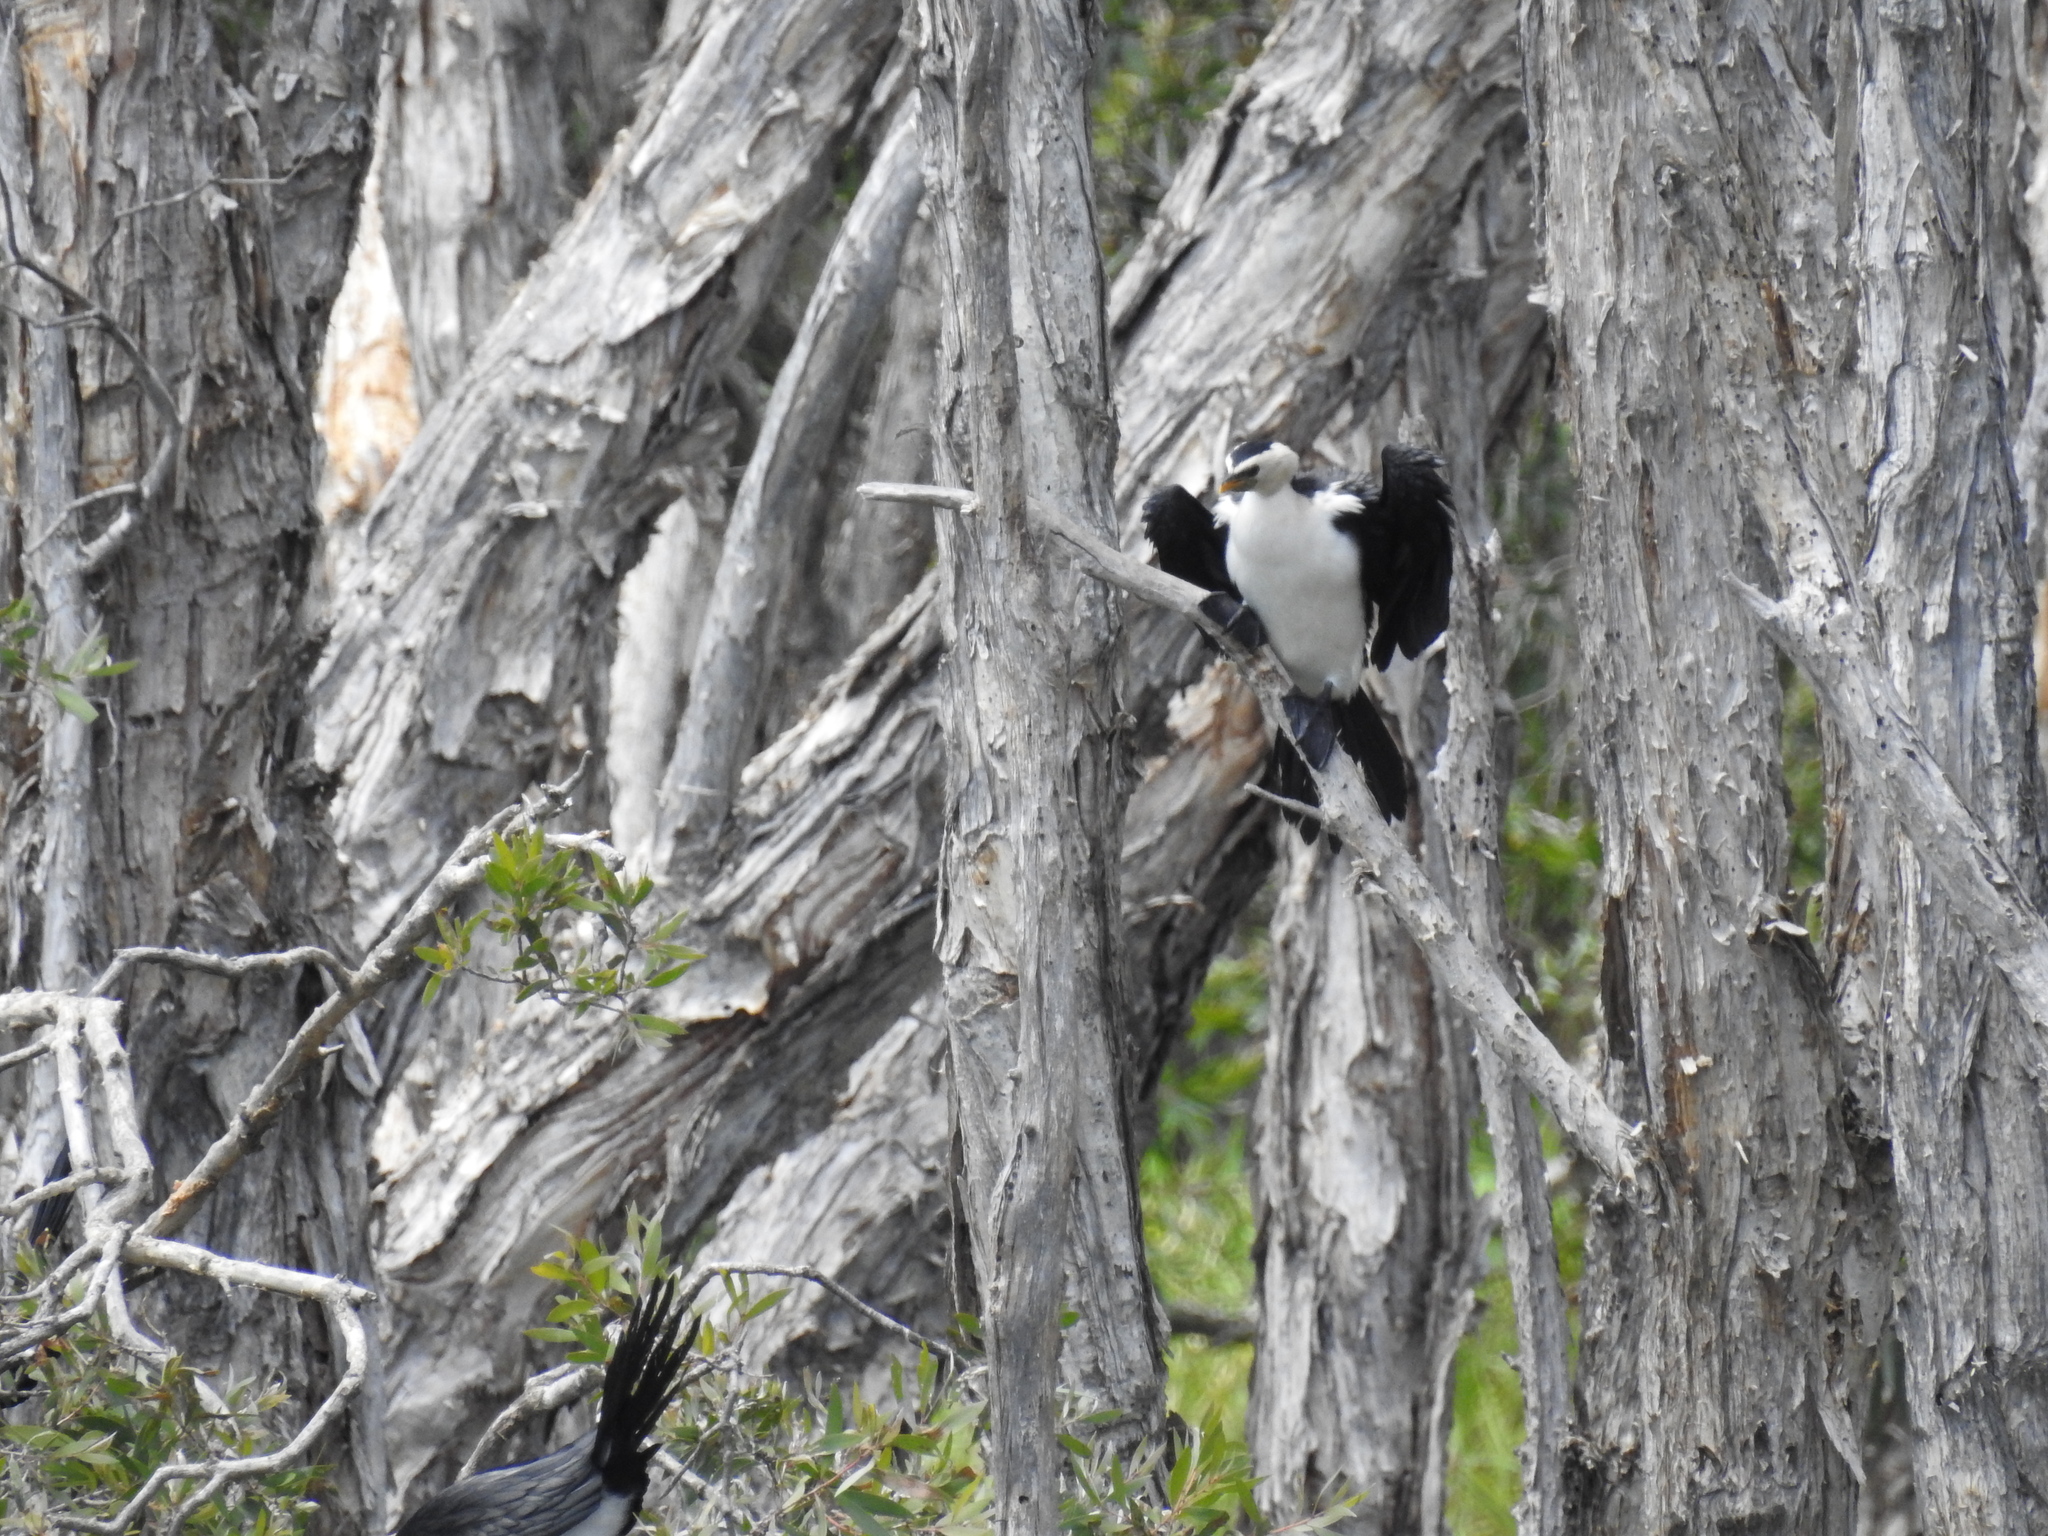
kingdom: Animalia
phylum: Chordata
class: Aves
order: Suliformes
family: Phalacrocoracidae
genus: Microcarbo
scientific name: Microcarbo melanoleucos
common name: Little pied cormorant
